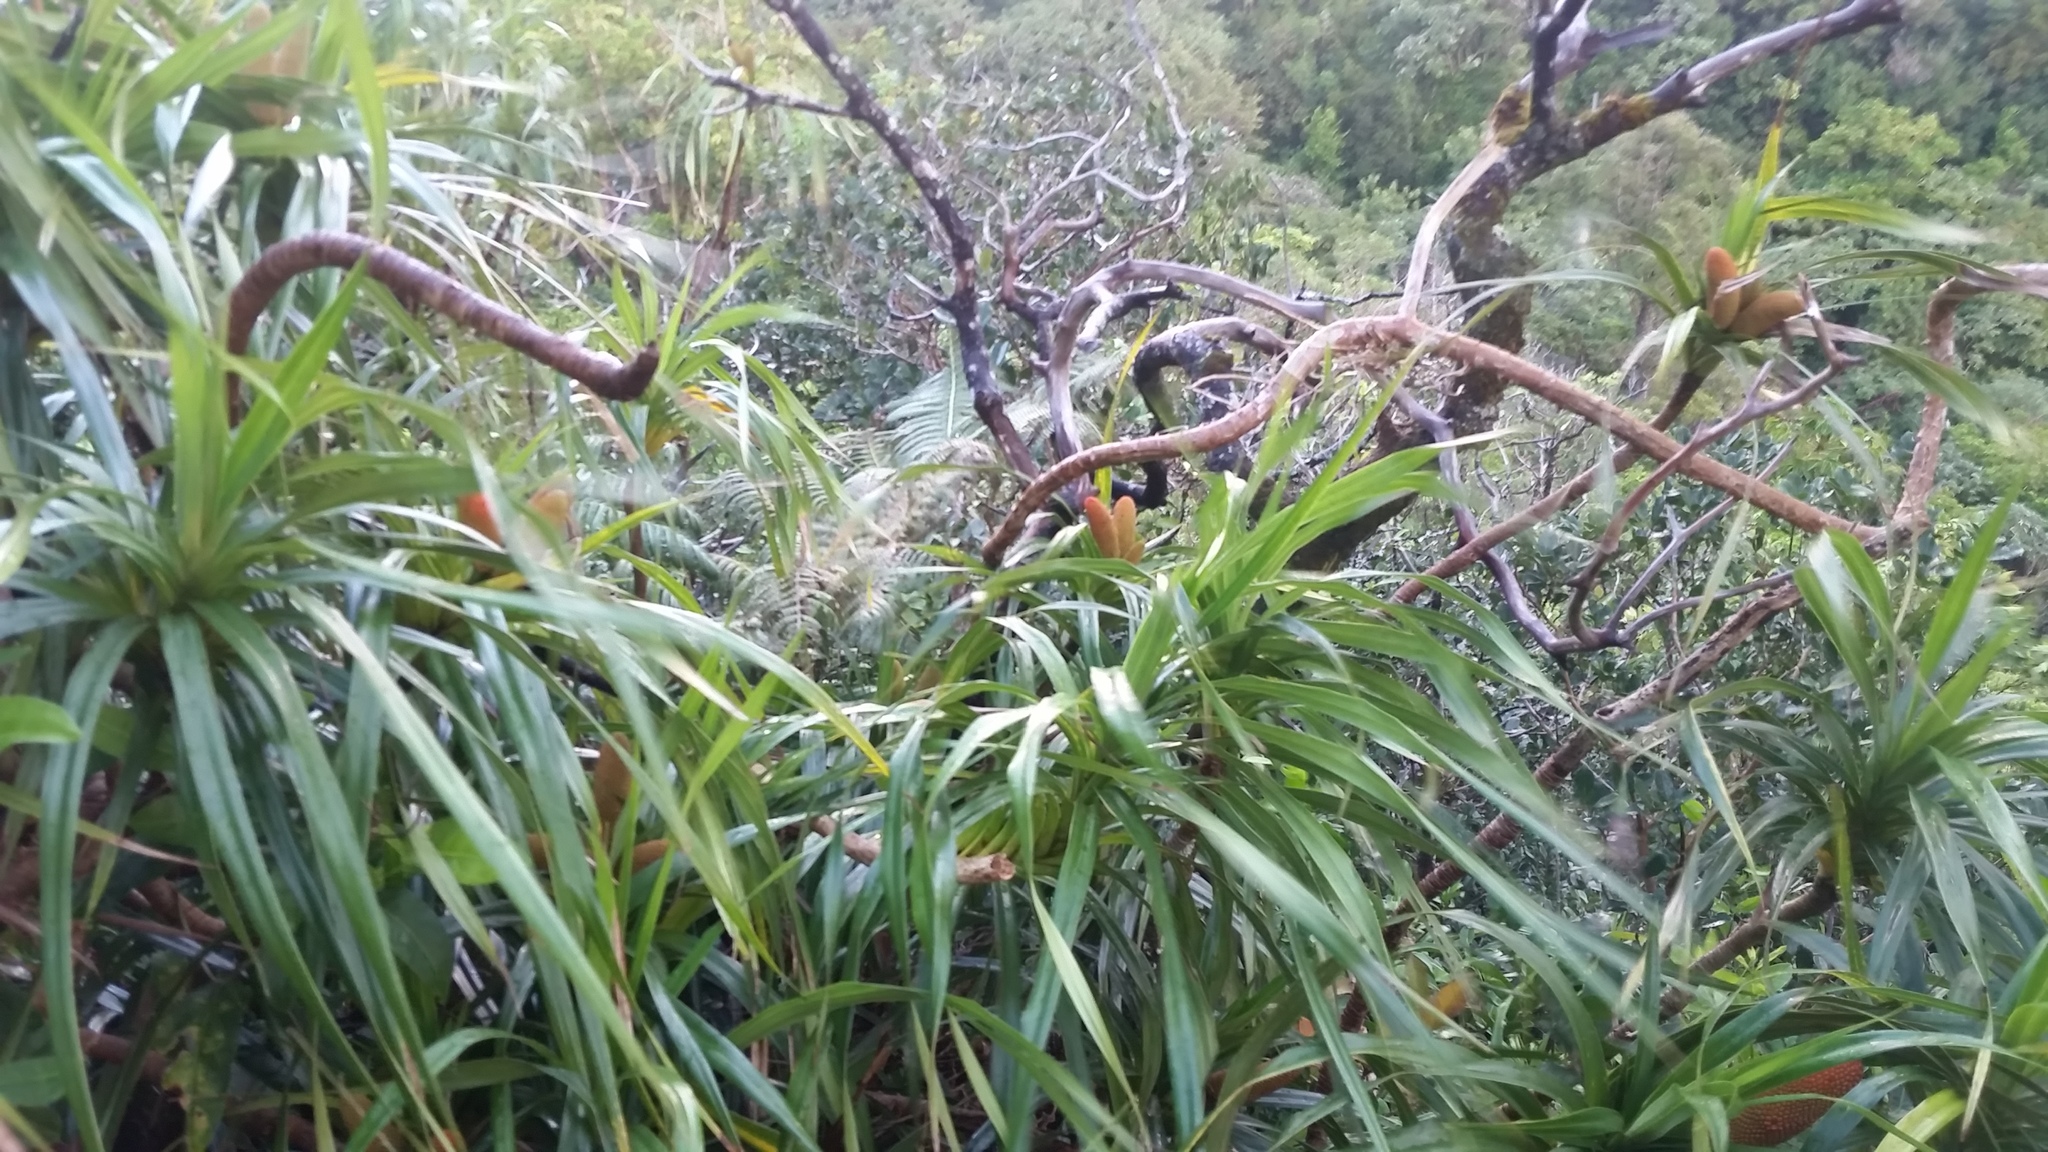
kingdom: Plantae
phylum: Tracheophyta
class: Liliopsida
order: Pandanales
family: Pandanaceae
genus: Freycinetia
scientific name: Freycinetia arborea
